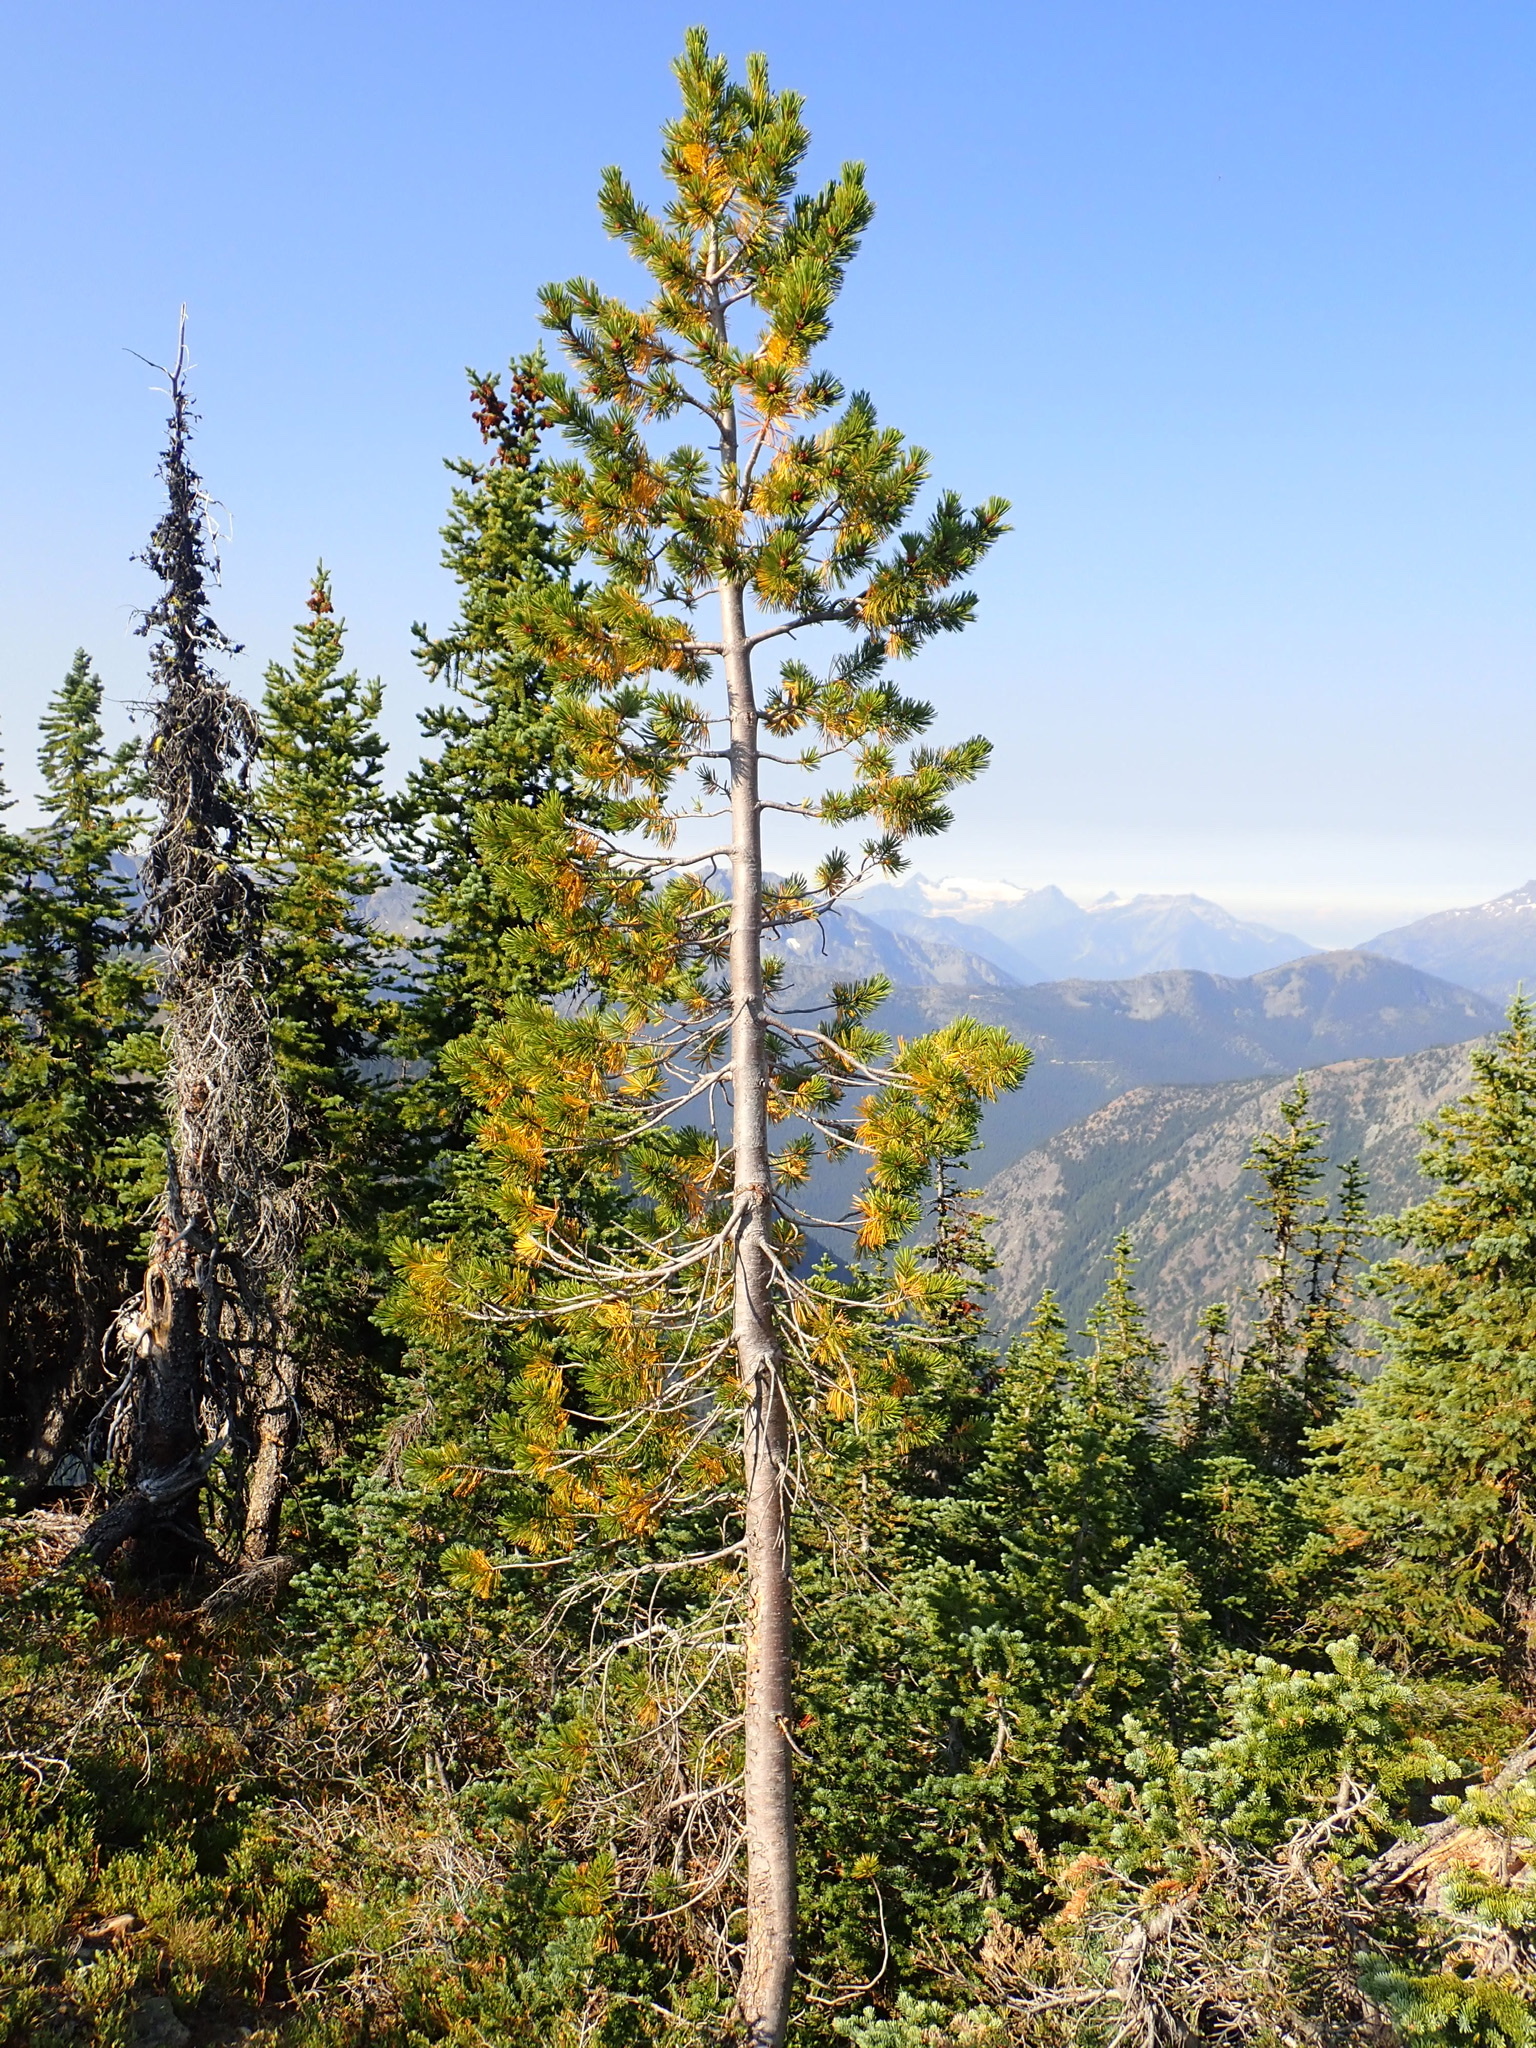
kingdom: Plantae
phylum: Tracheophyta
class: Pinopsida
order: Pinales
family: Pinaceae
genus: Pinus
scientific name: Pinus albicaulis
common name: Whitebark pine
